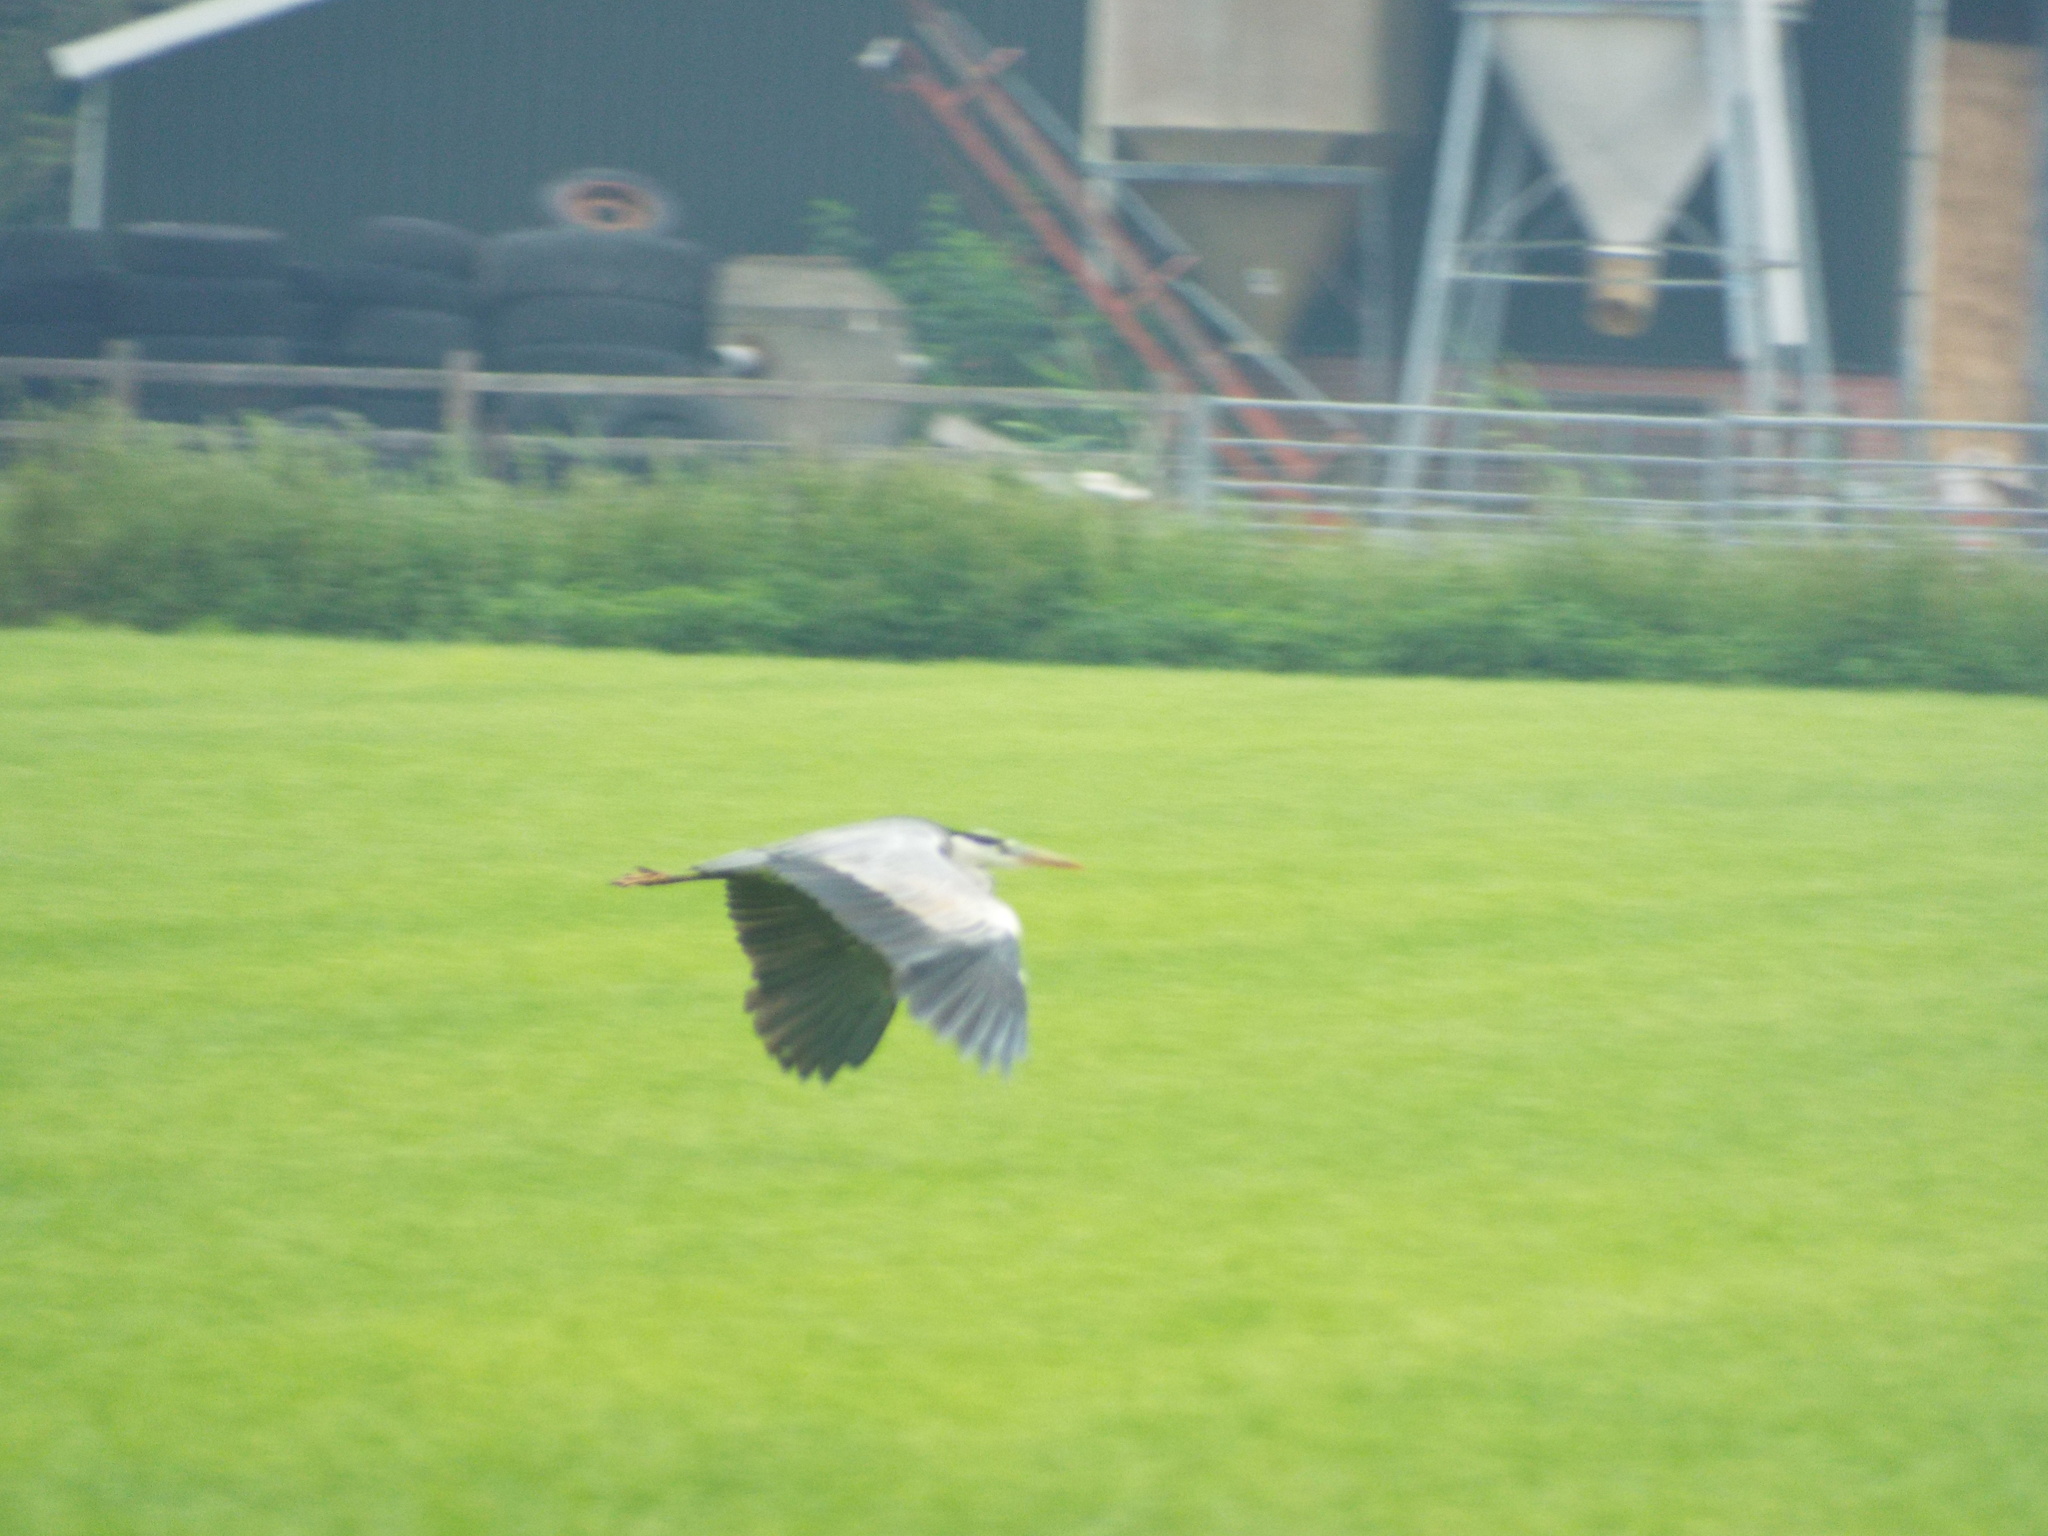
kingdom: Animalia
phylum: Chordata
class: Aves
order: Pelecaniformes
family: Ardeidae
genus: Ardea
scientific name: Ardea cinerea
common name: Grey heron
